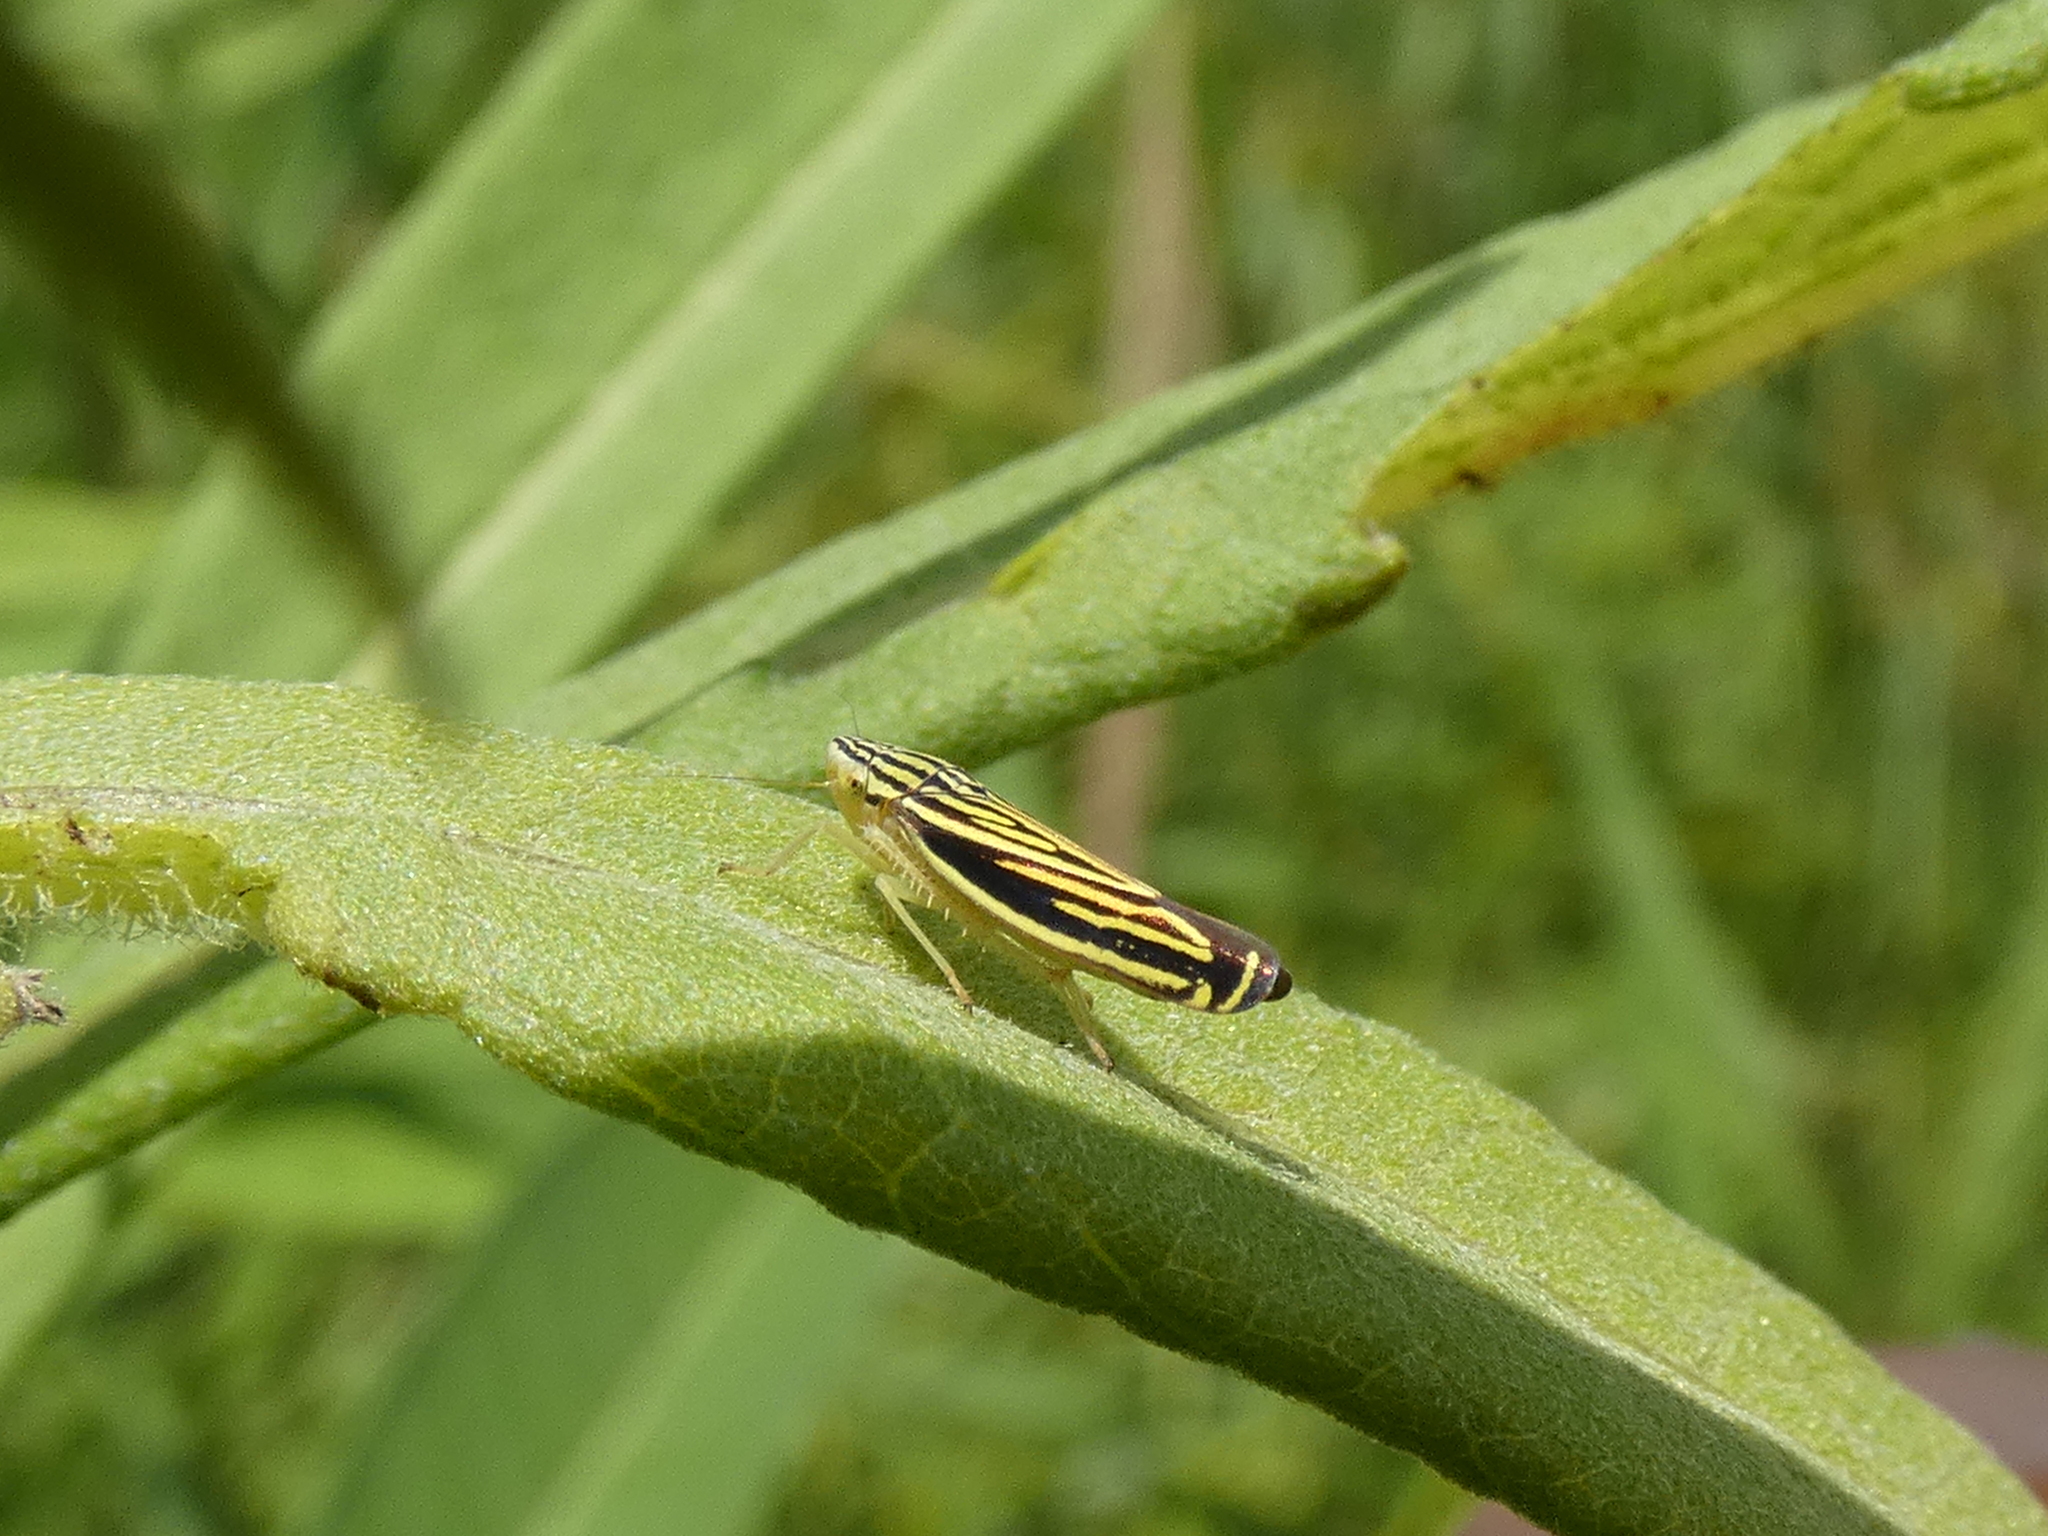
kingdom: Animalia
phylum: Arthropoda
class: Insecta
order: Hemiptera
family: Cicadellidae
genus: Sibovia
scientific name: Sibovia occatoria
